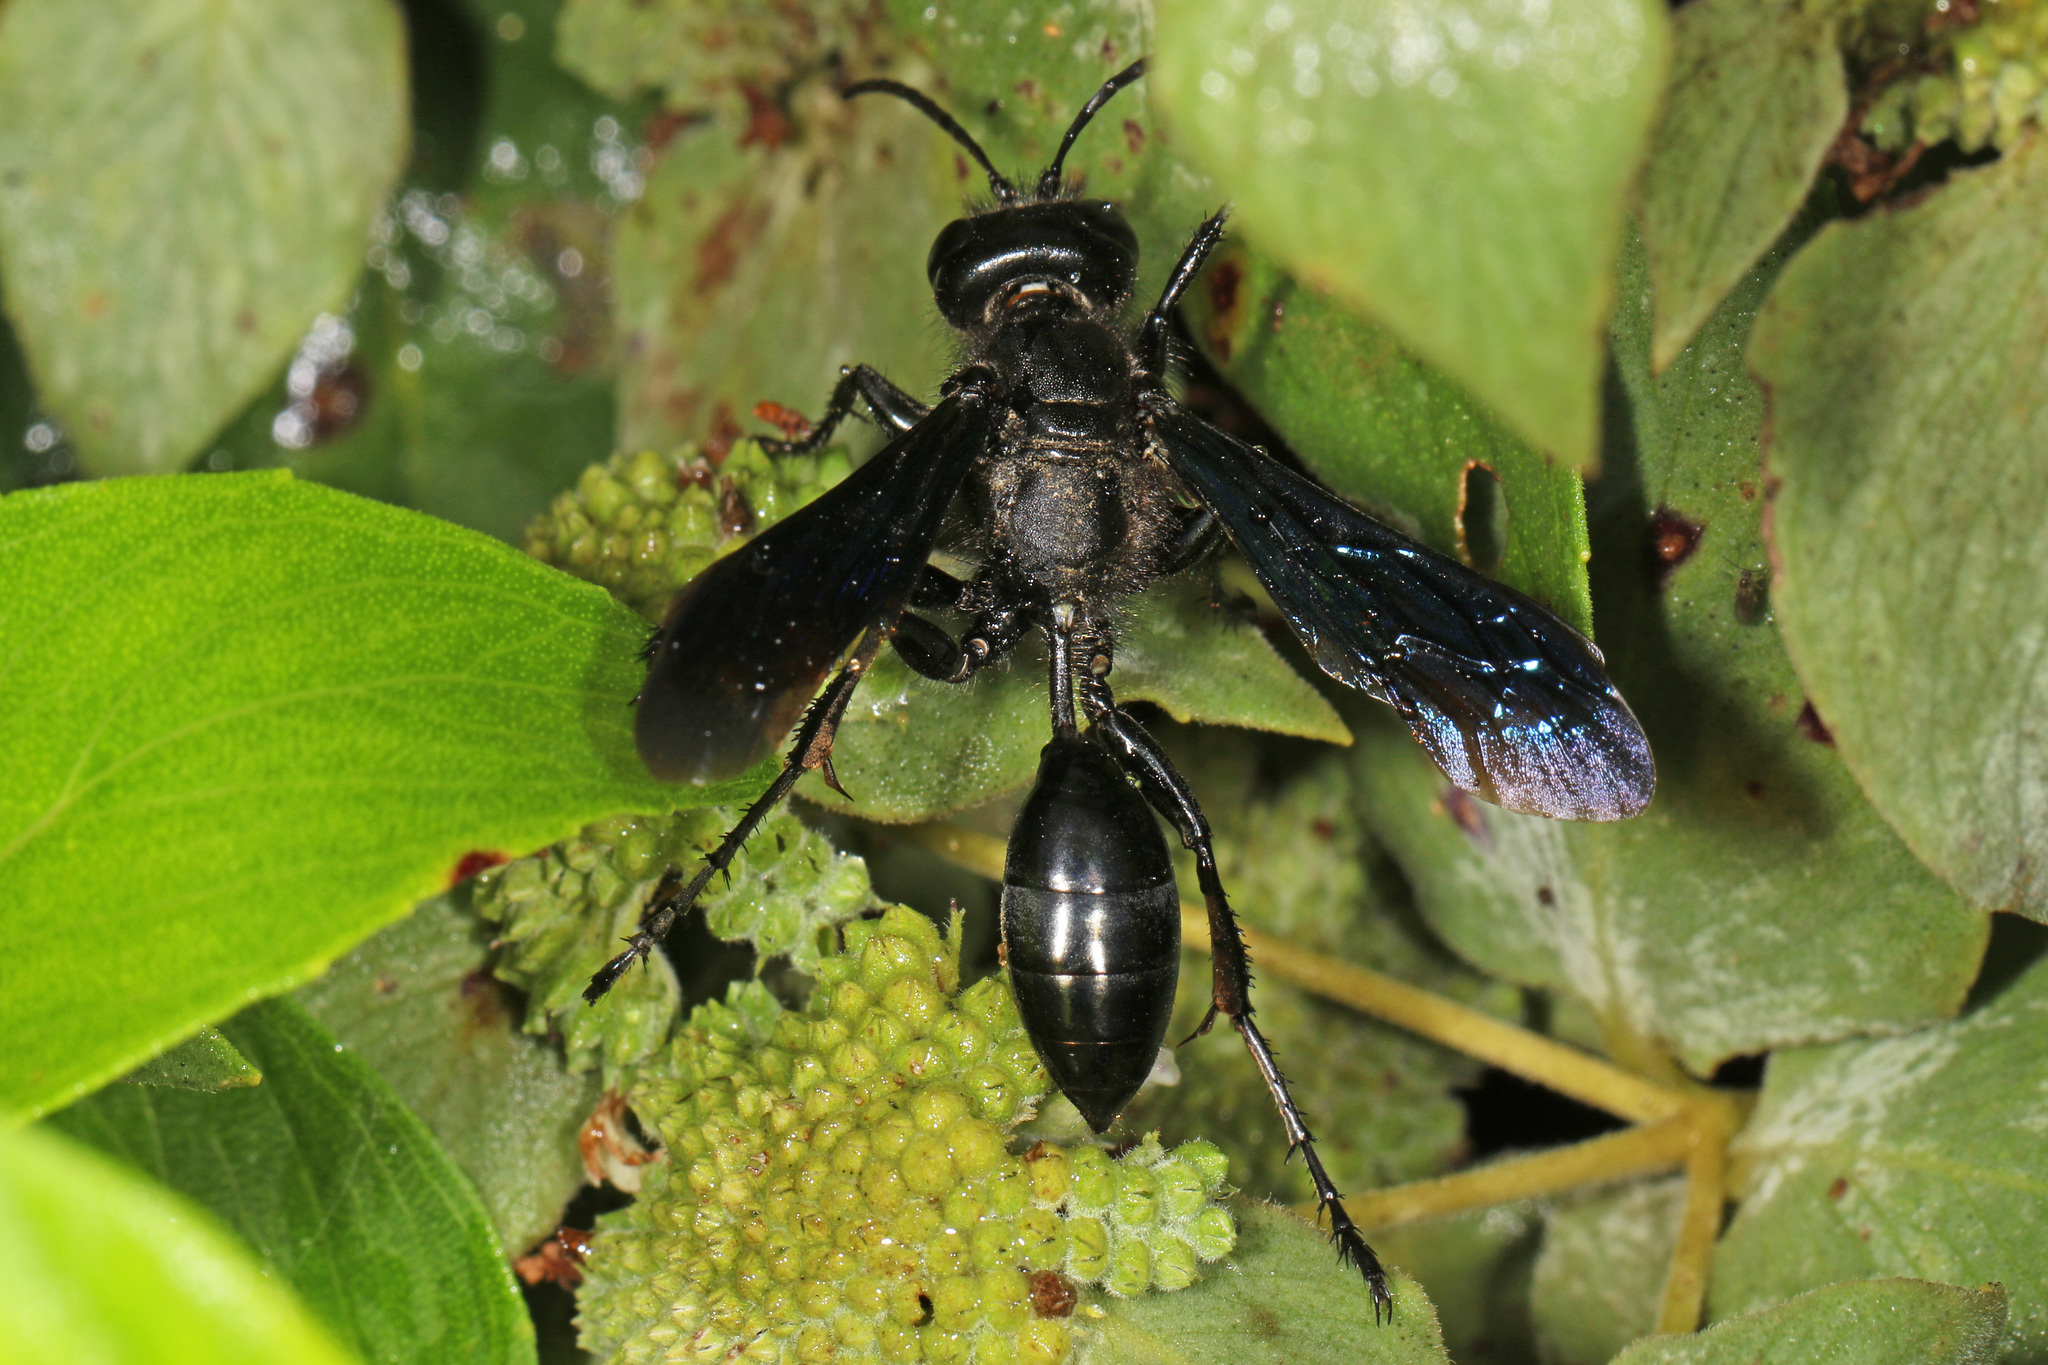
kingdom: Animalia
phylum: Arthropoda
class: Insecta
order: Hymenoptera
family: Sphecidae
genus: Isodontia
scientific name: Isodontia philadelphica
